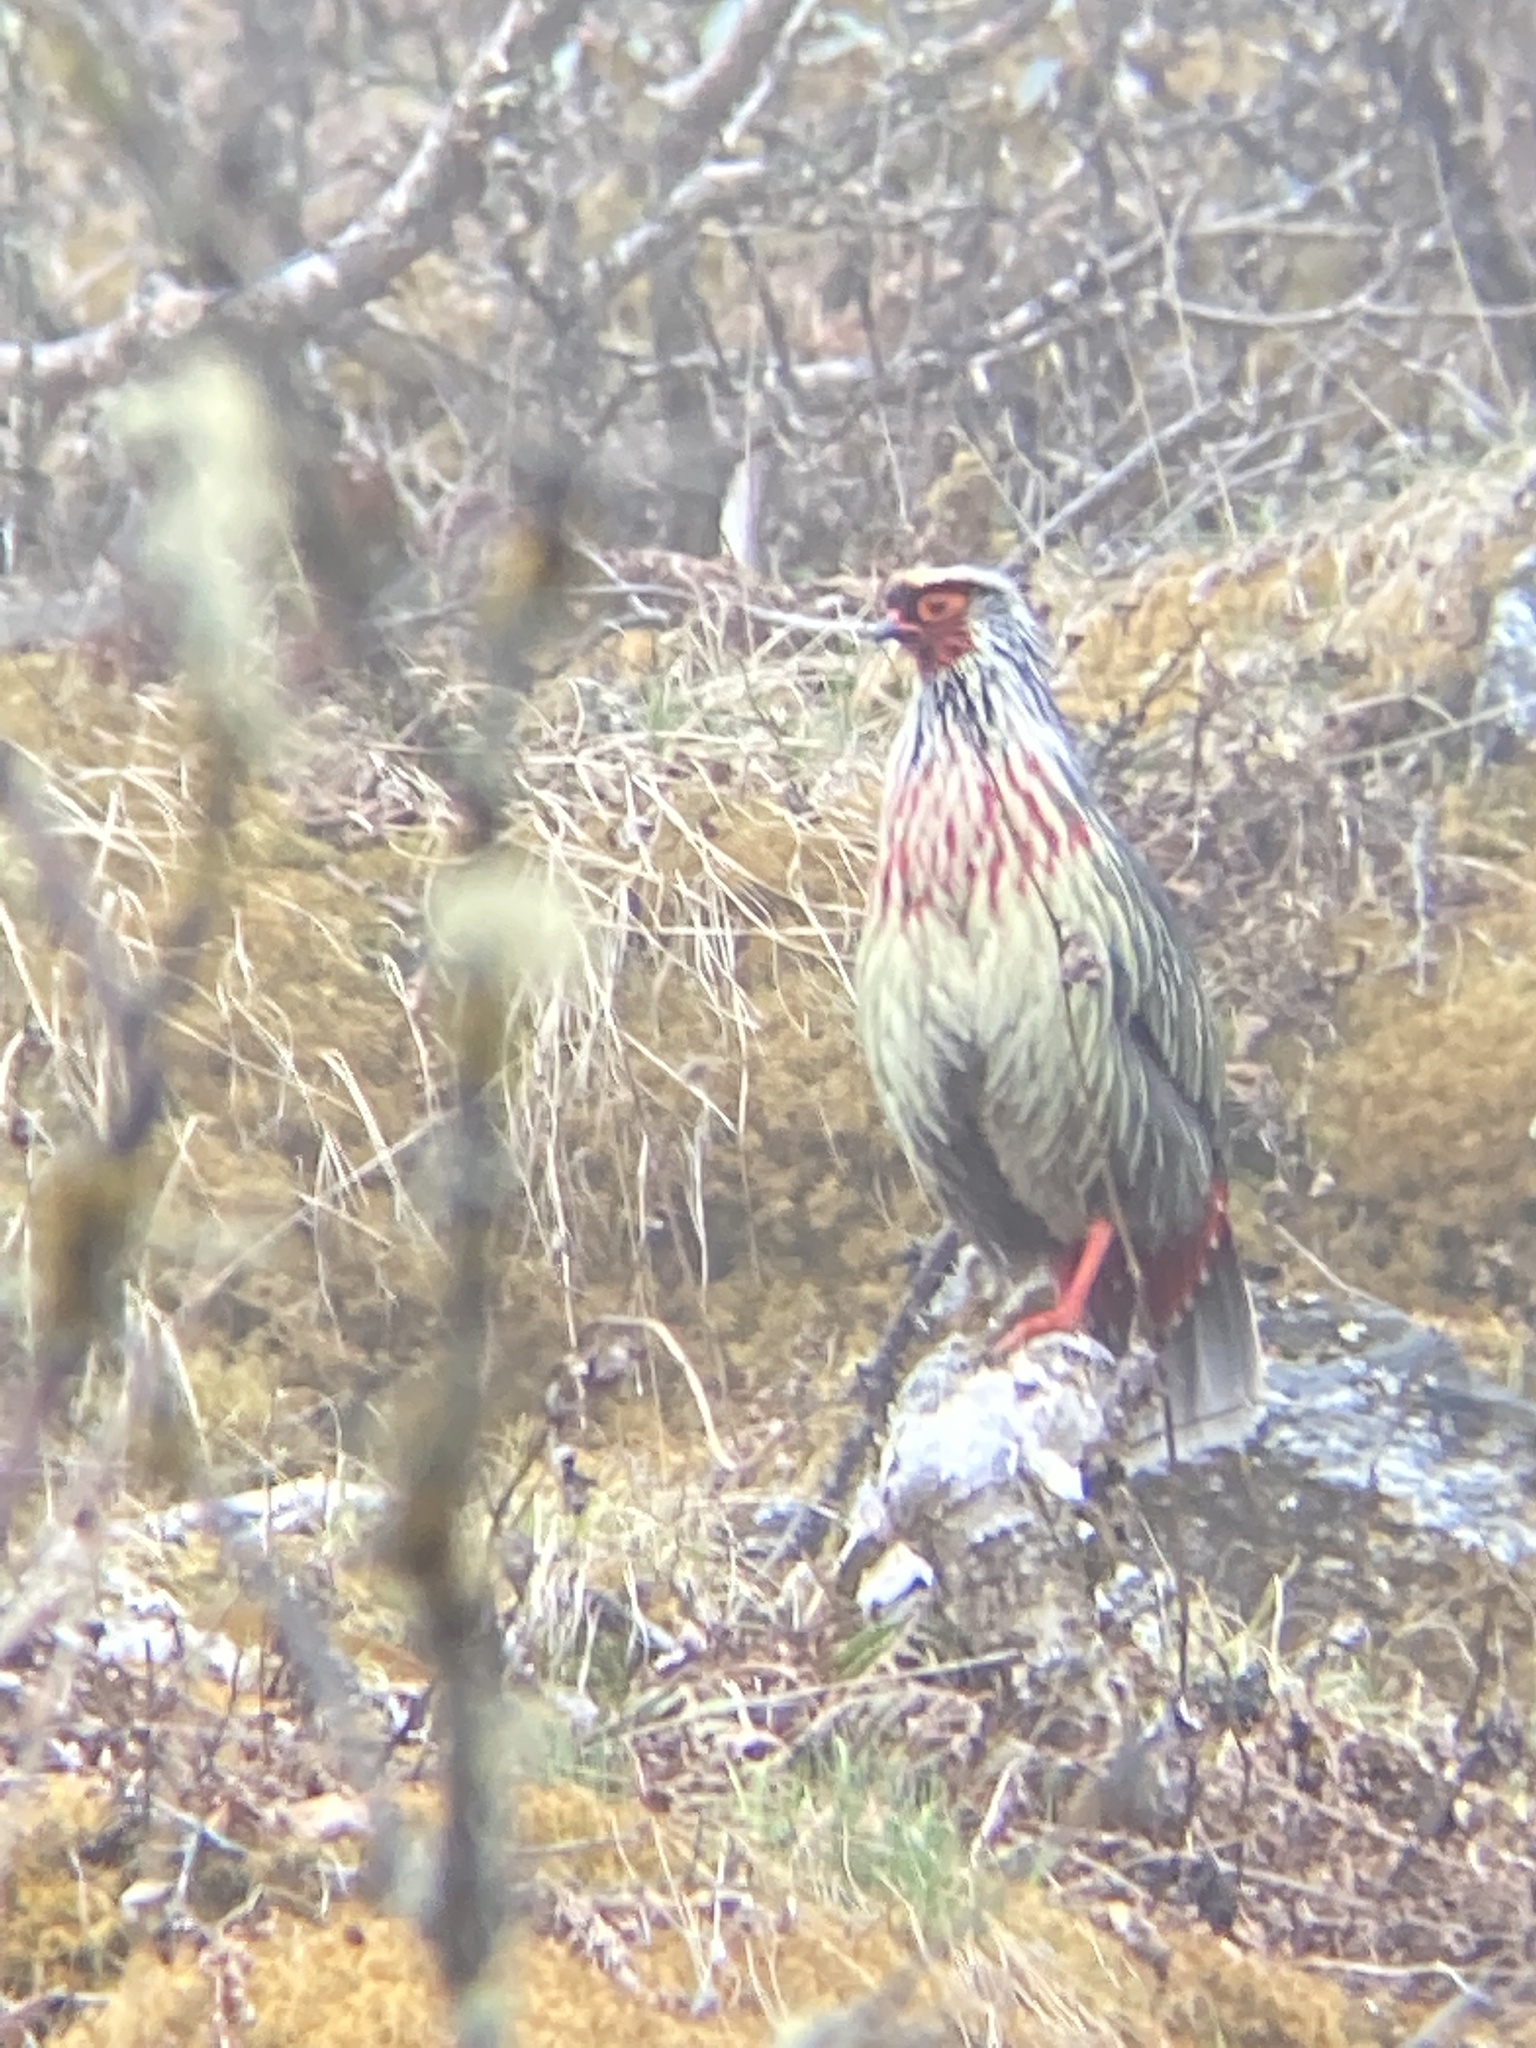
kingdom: Animalia
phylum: Chordata
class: Aves
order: Galliformes
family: Phasianidae
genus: Ithaginis
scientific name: Ithaginis cruentus
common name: Blood pheasant
